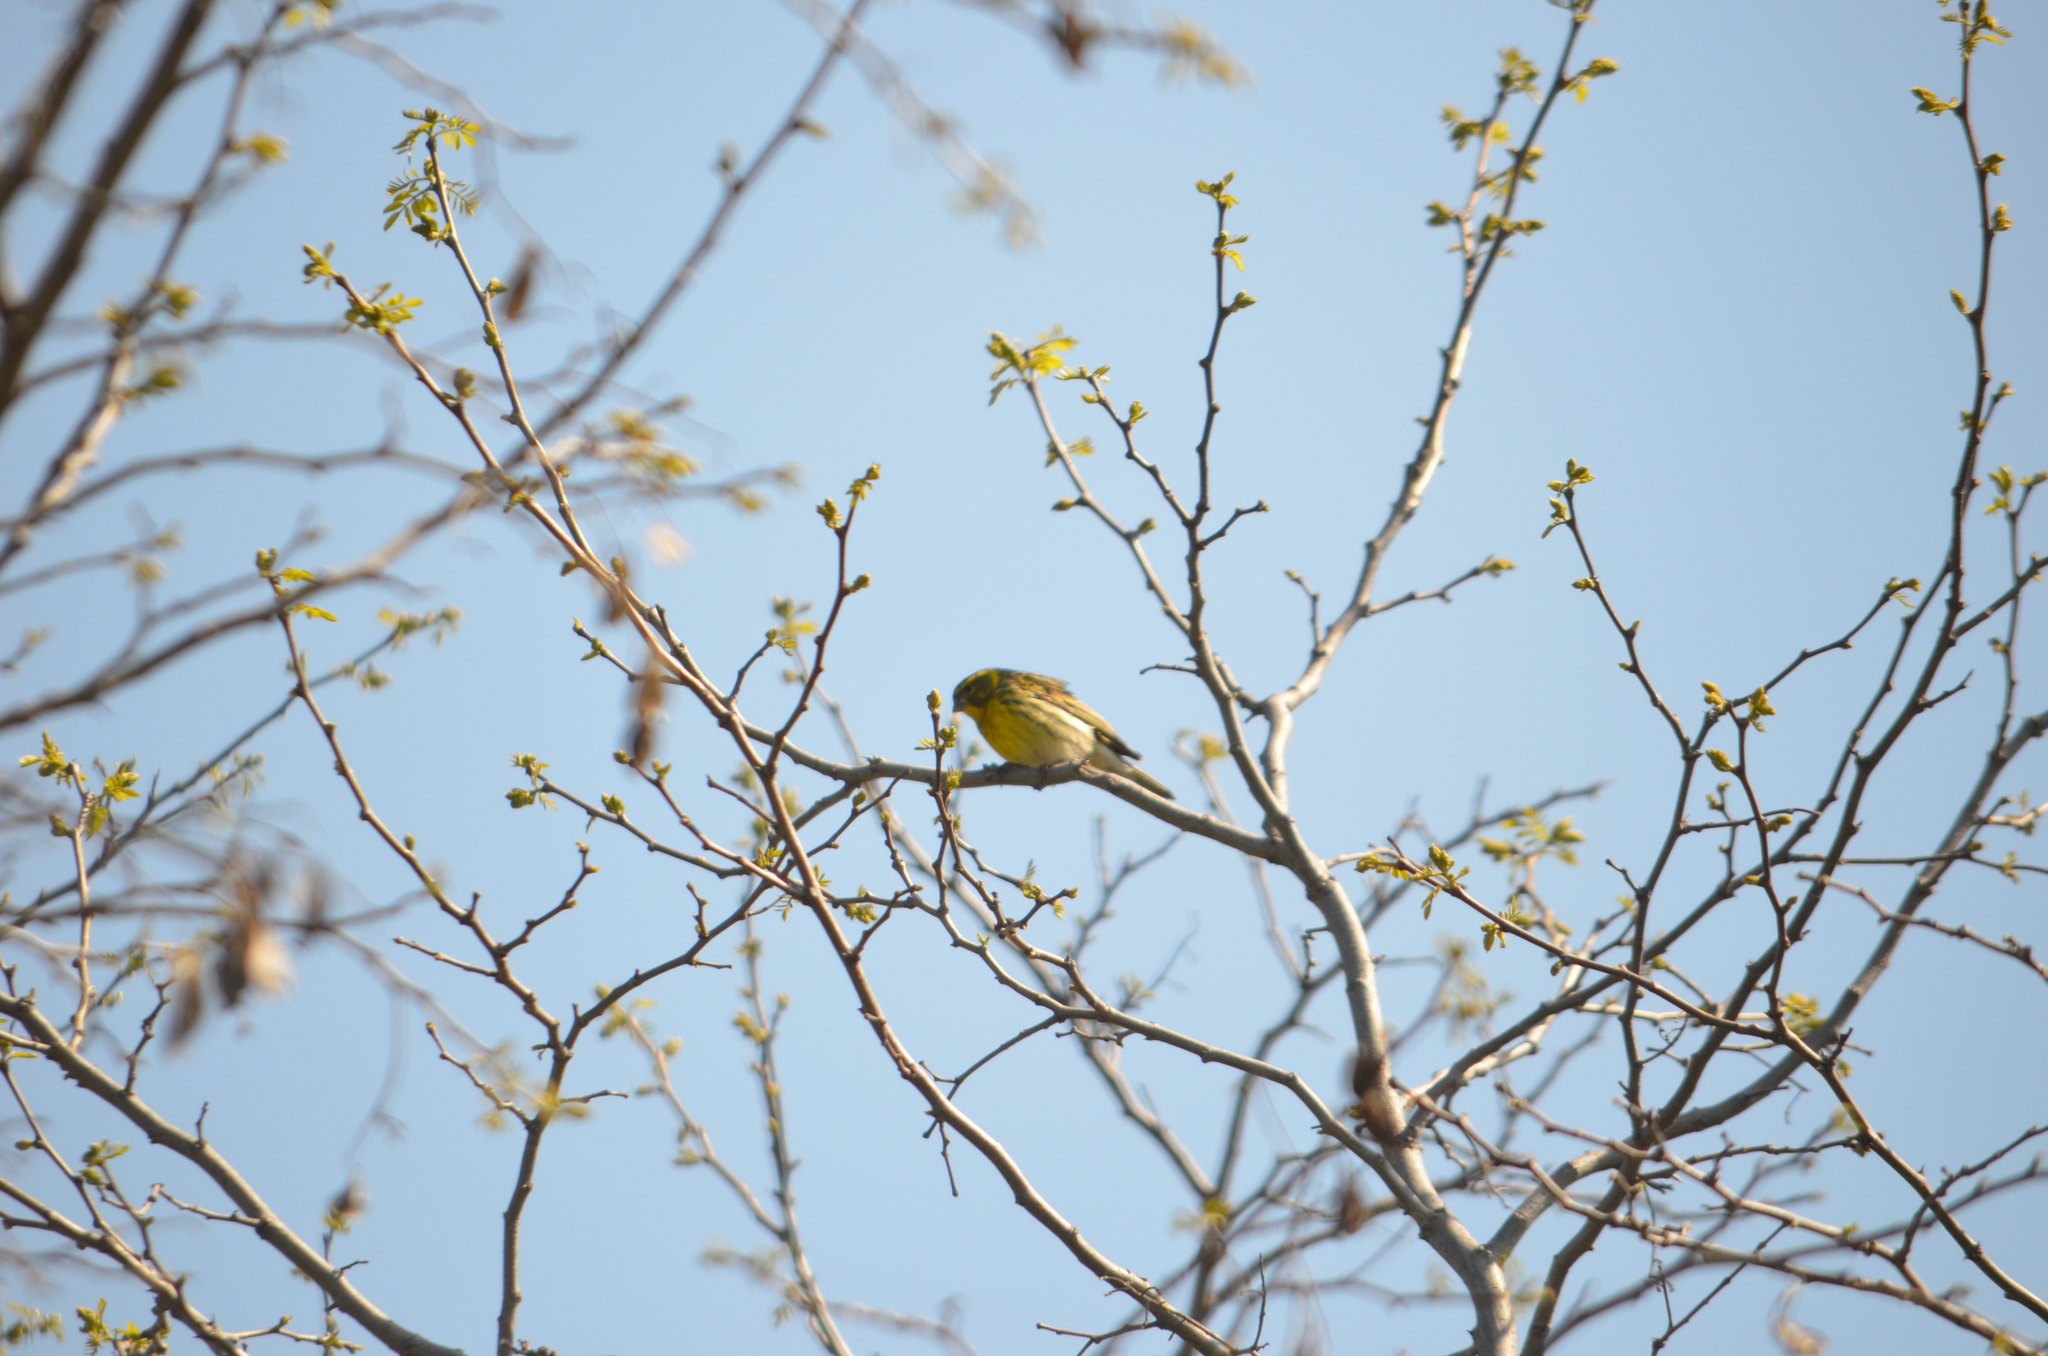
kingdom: Animalia
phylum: Chordata
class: Aves
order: Passeriformes
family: Fringillidae
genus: Serinus
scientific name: Serinus serinus
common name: European serin
